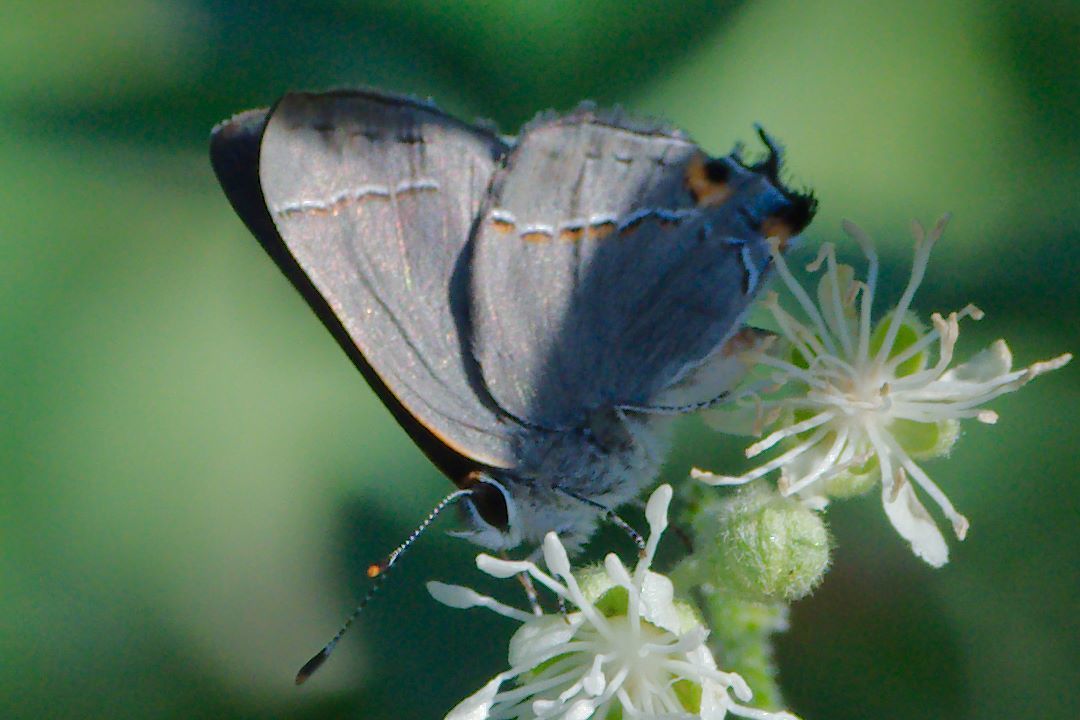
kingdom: Animalia
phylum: Arthropoda
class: Insecta
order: Lepidoptera
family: Lycaenidae
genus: Strymon
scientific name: Strymon melinus
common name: Gray hairstreak
